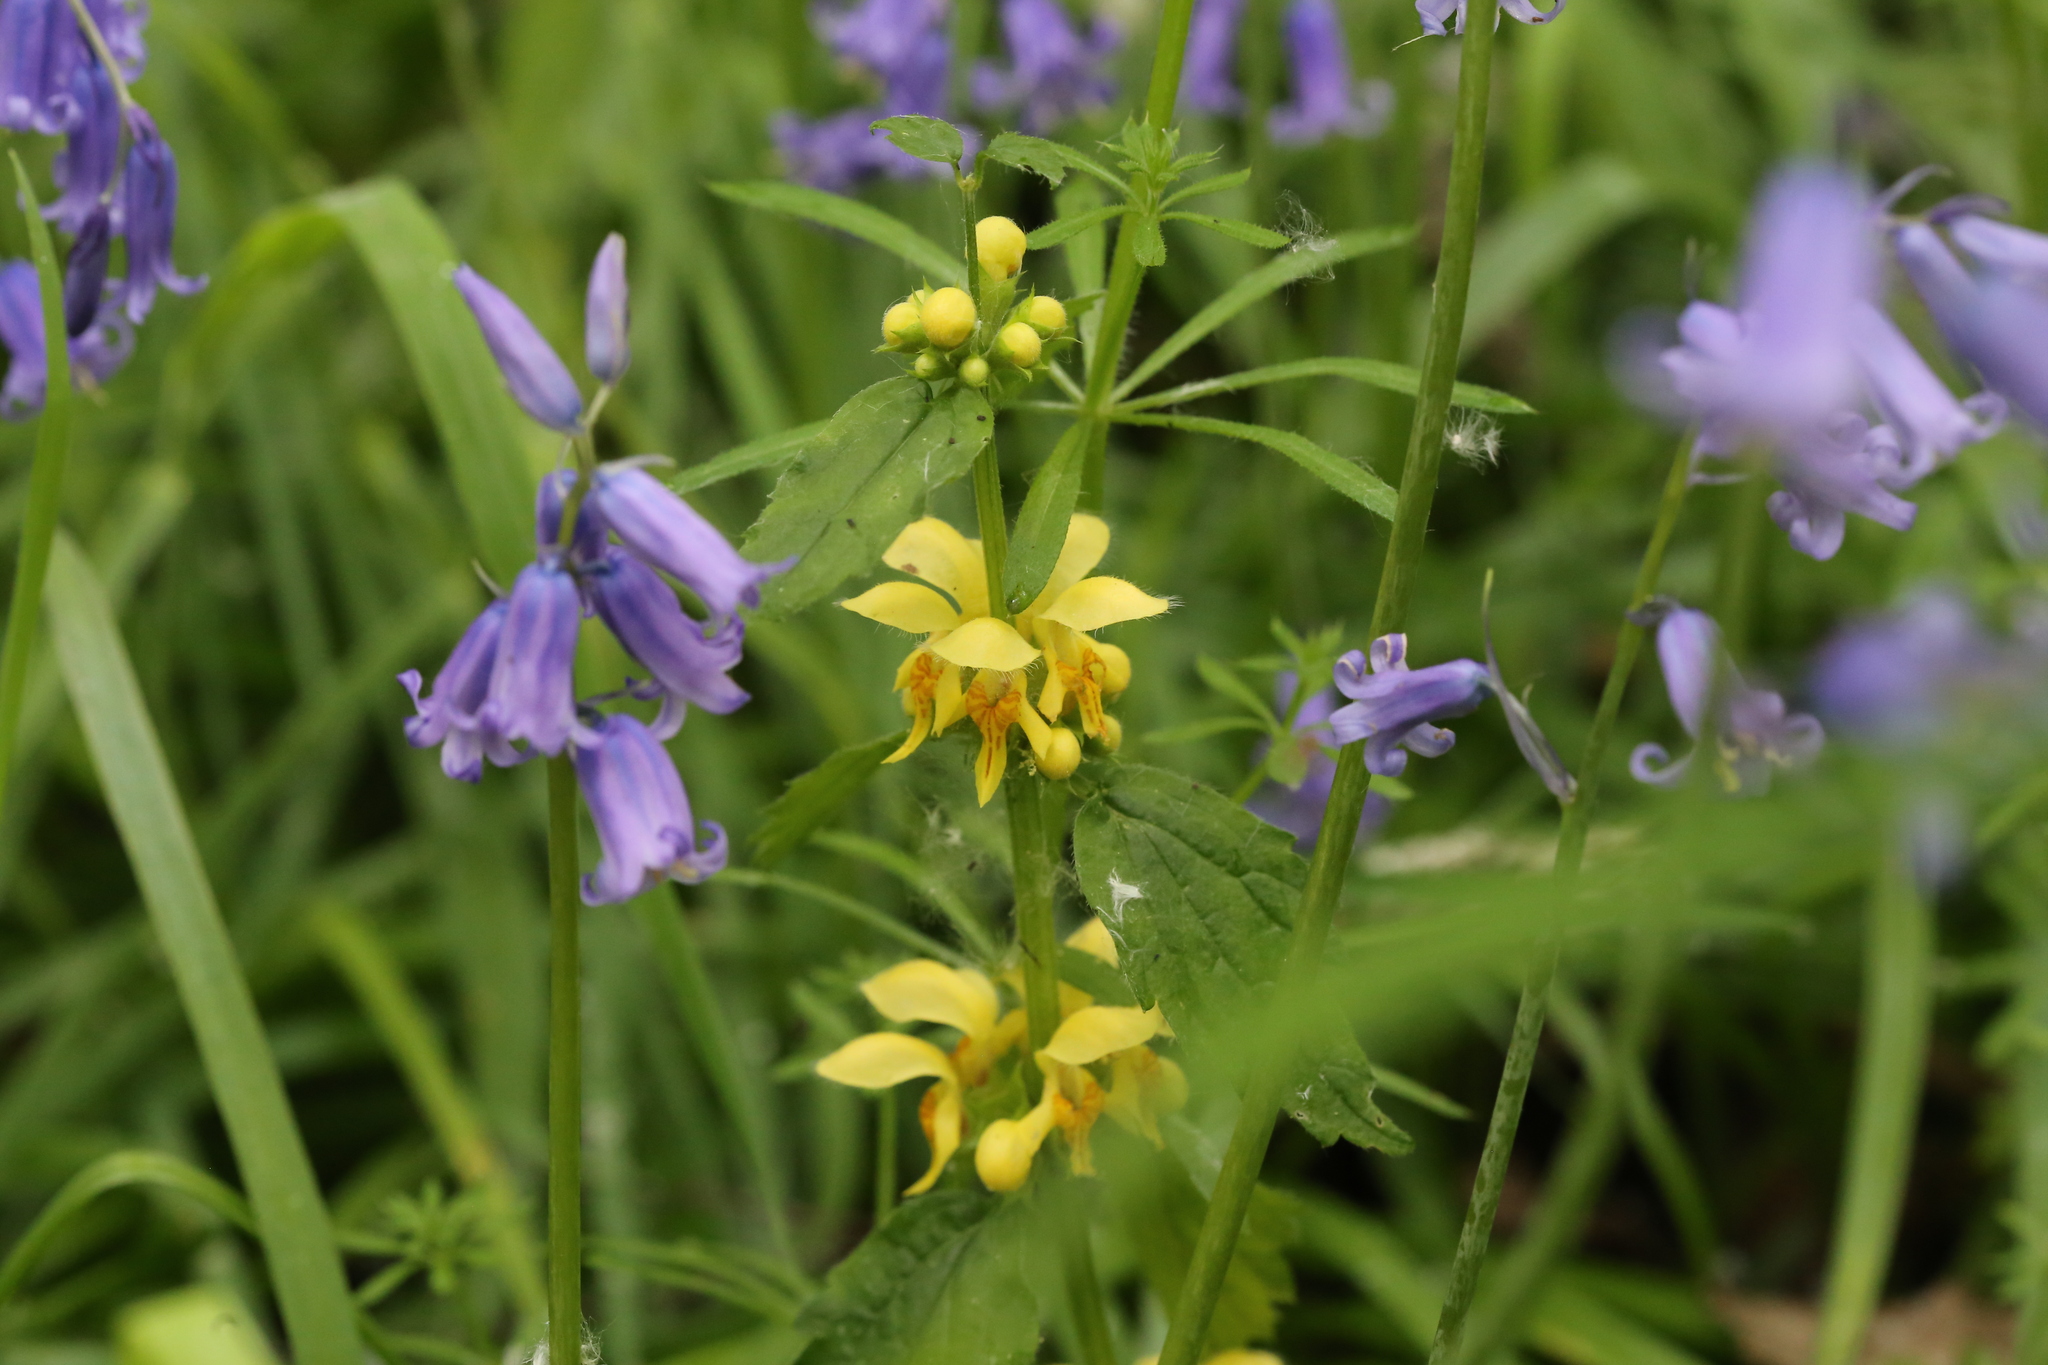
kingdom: Plantae
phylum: Tracheophyta
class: Magnoliopsida
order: Lamiales
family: Lamiaceae
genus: Lamium
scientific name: Lamium galeobdolon
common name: Yellow archangel
